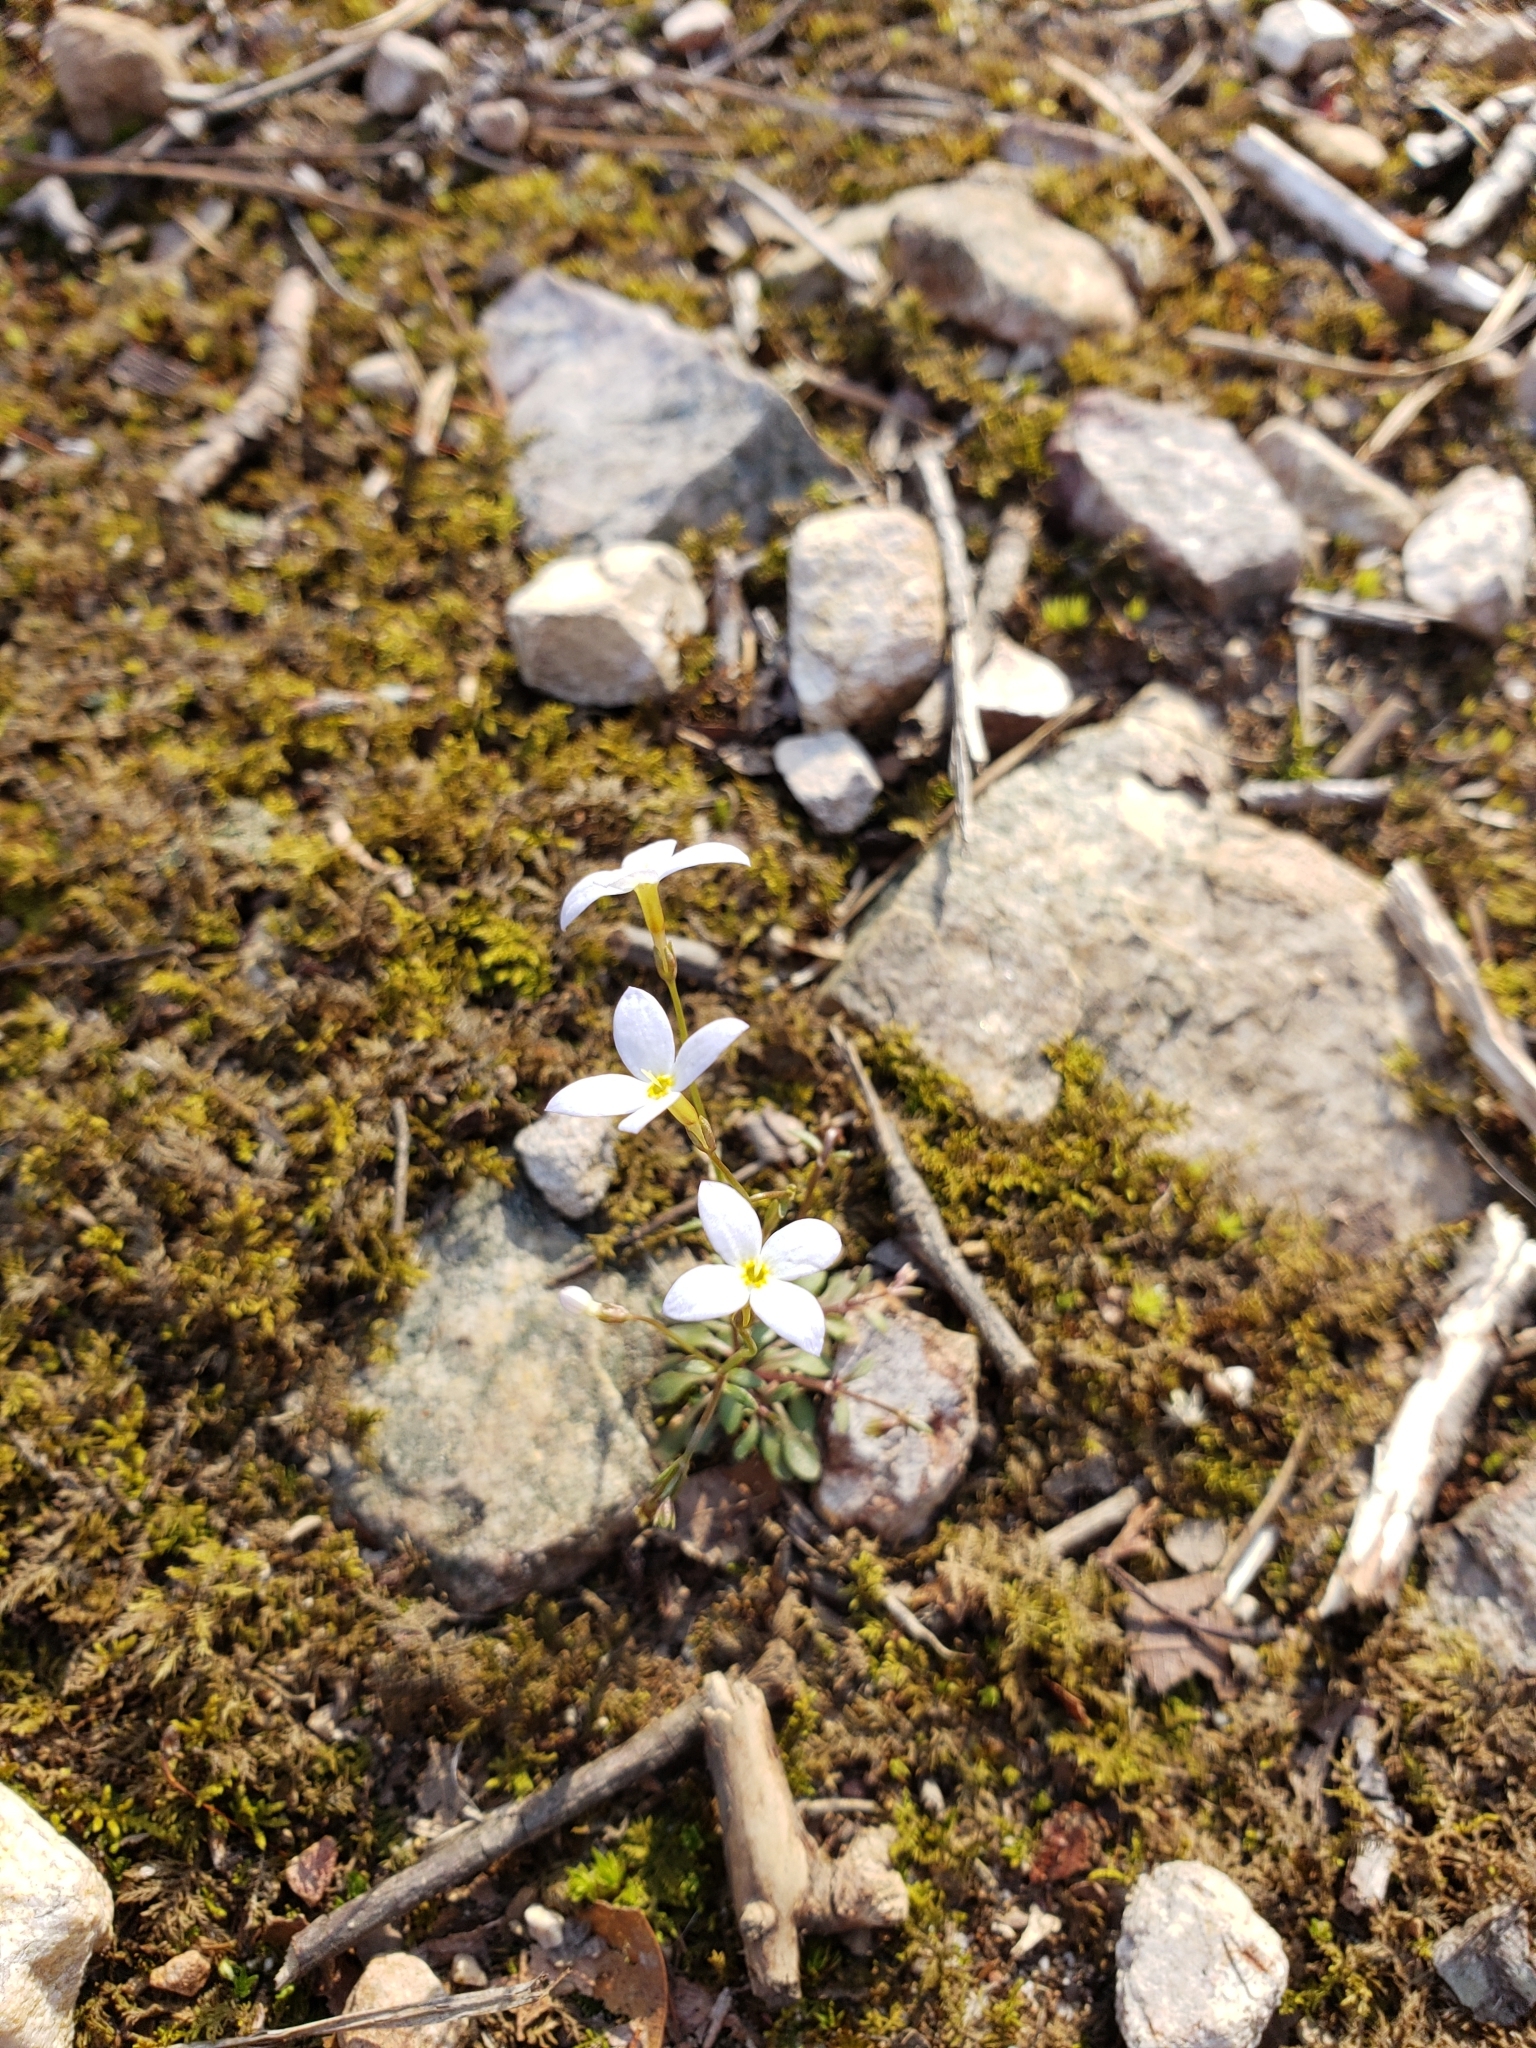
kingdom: Plantae
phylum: Tracheophyta
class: Magnoliopsida
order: Gentianales
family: Rubiaceae
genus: Houstonia
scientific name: Houstonia caerulea
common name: Bluets
